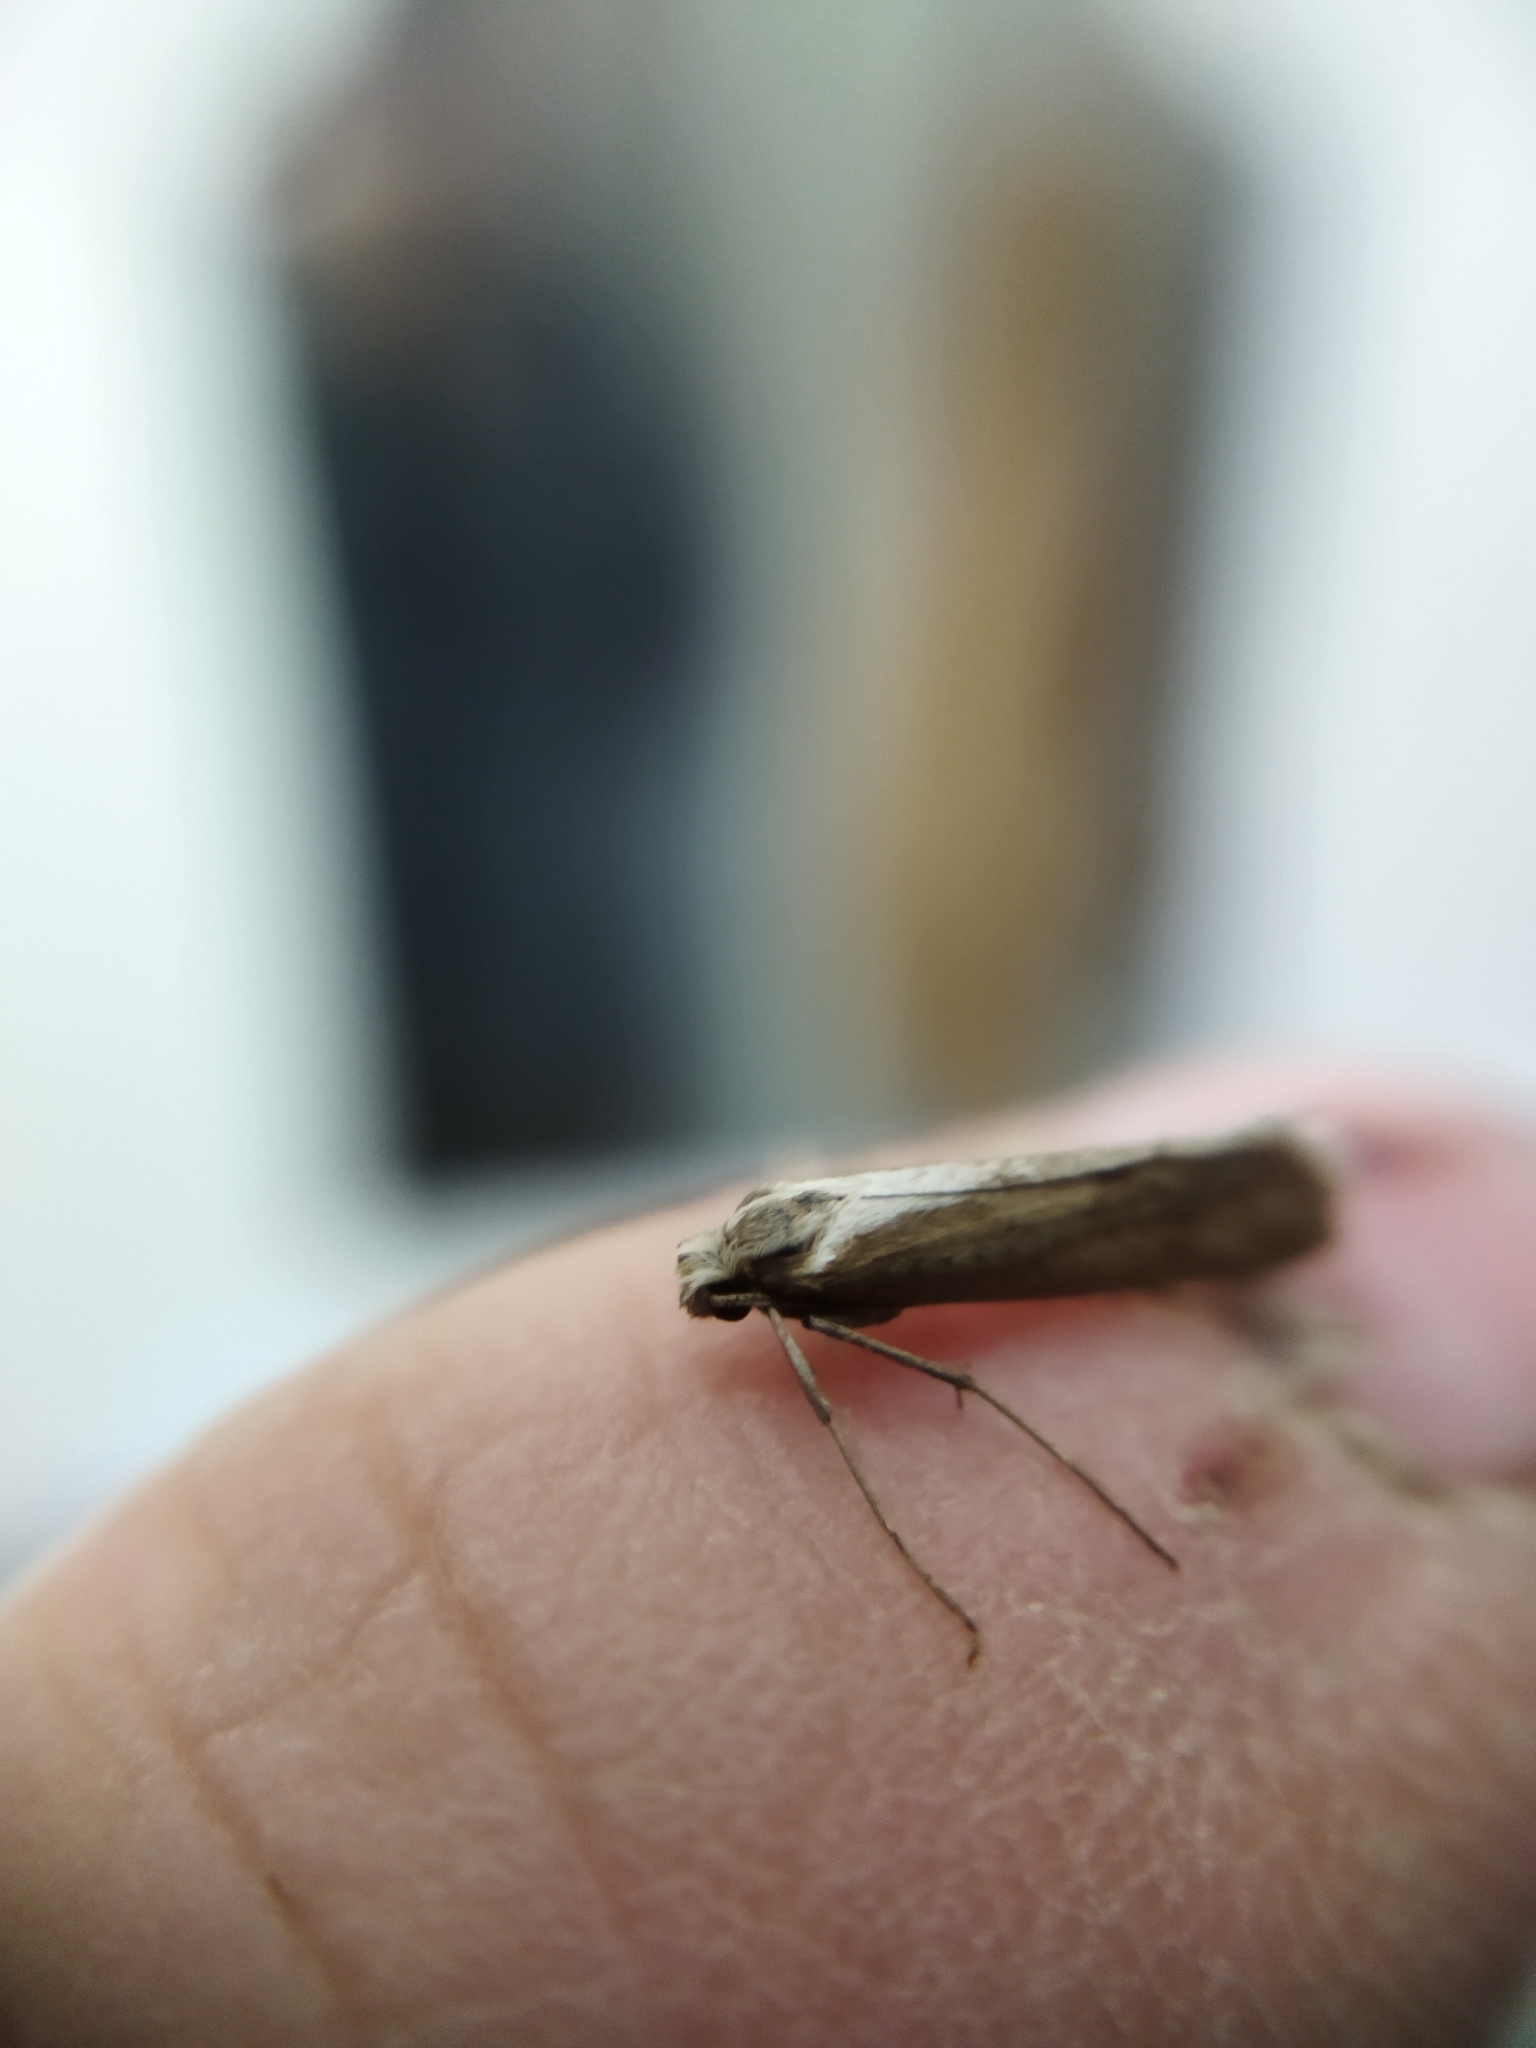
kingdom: Animalia
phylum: Arthropoda
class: Insecta
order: Lepidoptera
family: Eriocottidae
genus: Deuterotinea
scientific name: Deuterotinea casanella
